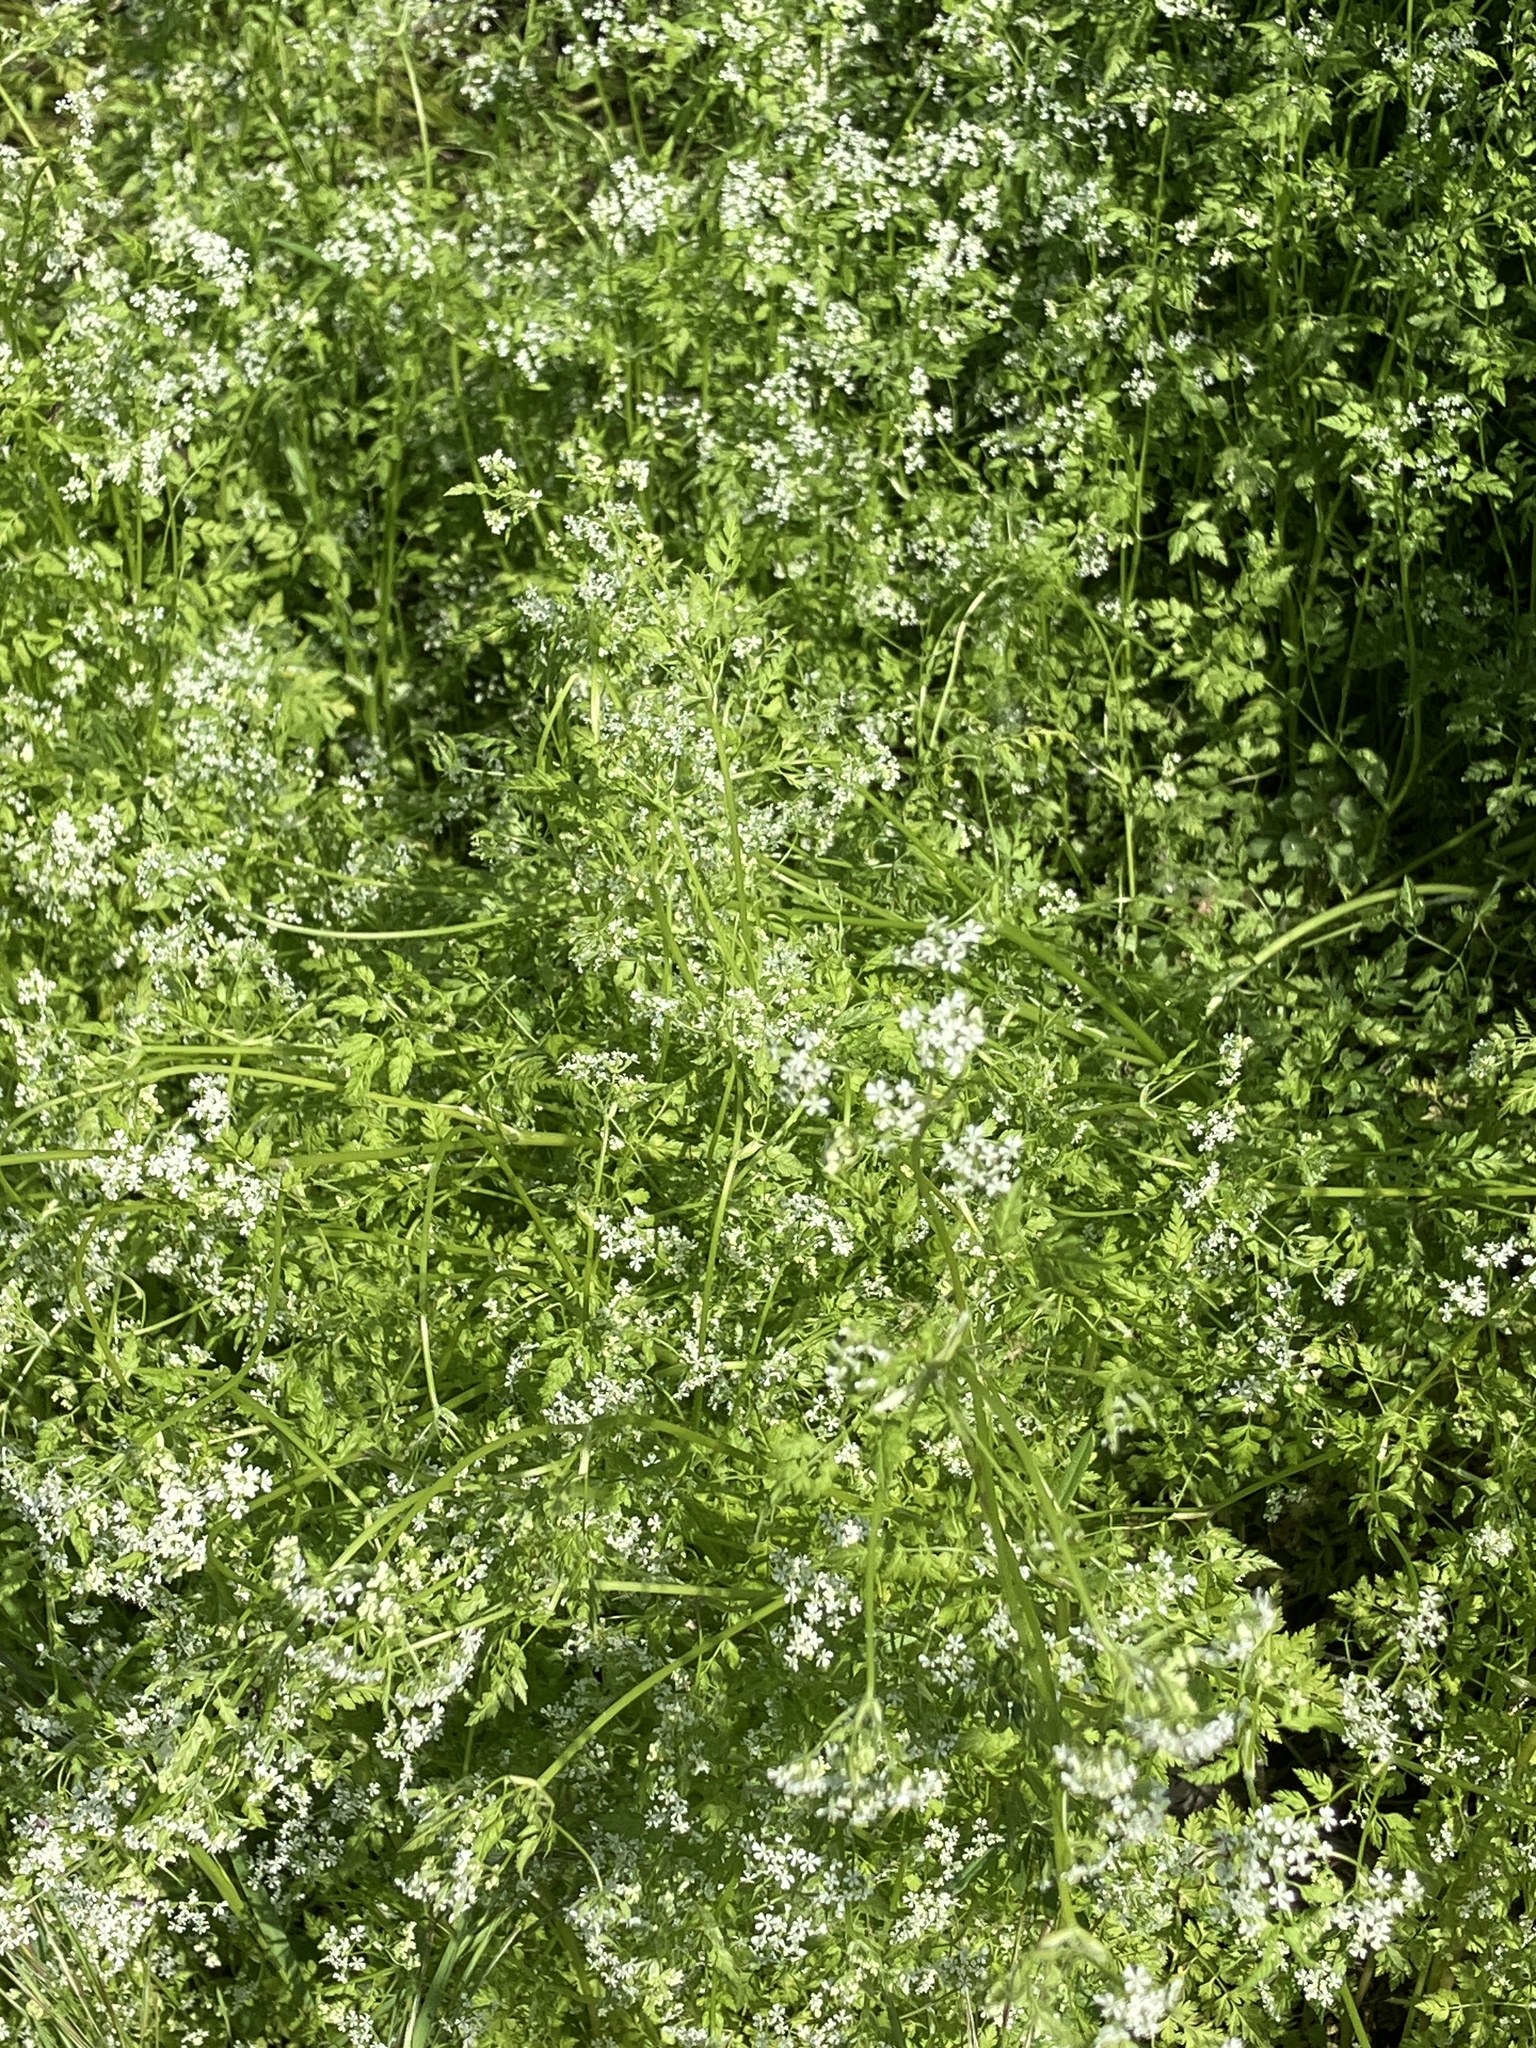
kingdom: Plantae
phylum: Tracheophyta
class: Magnoliopsida
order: Apiales
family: Apiaceae
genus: Anthriscus
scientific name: Anthriscus cerefolium
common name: Garden chervil
